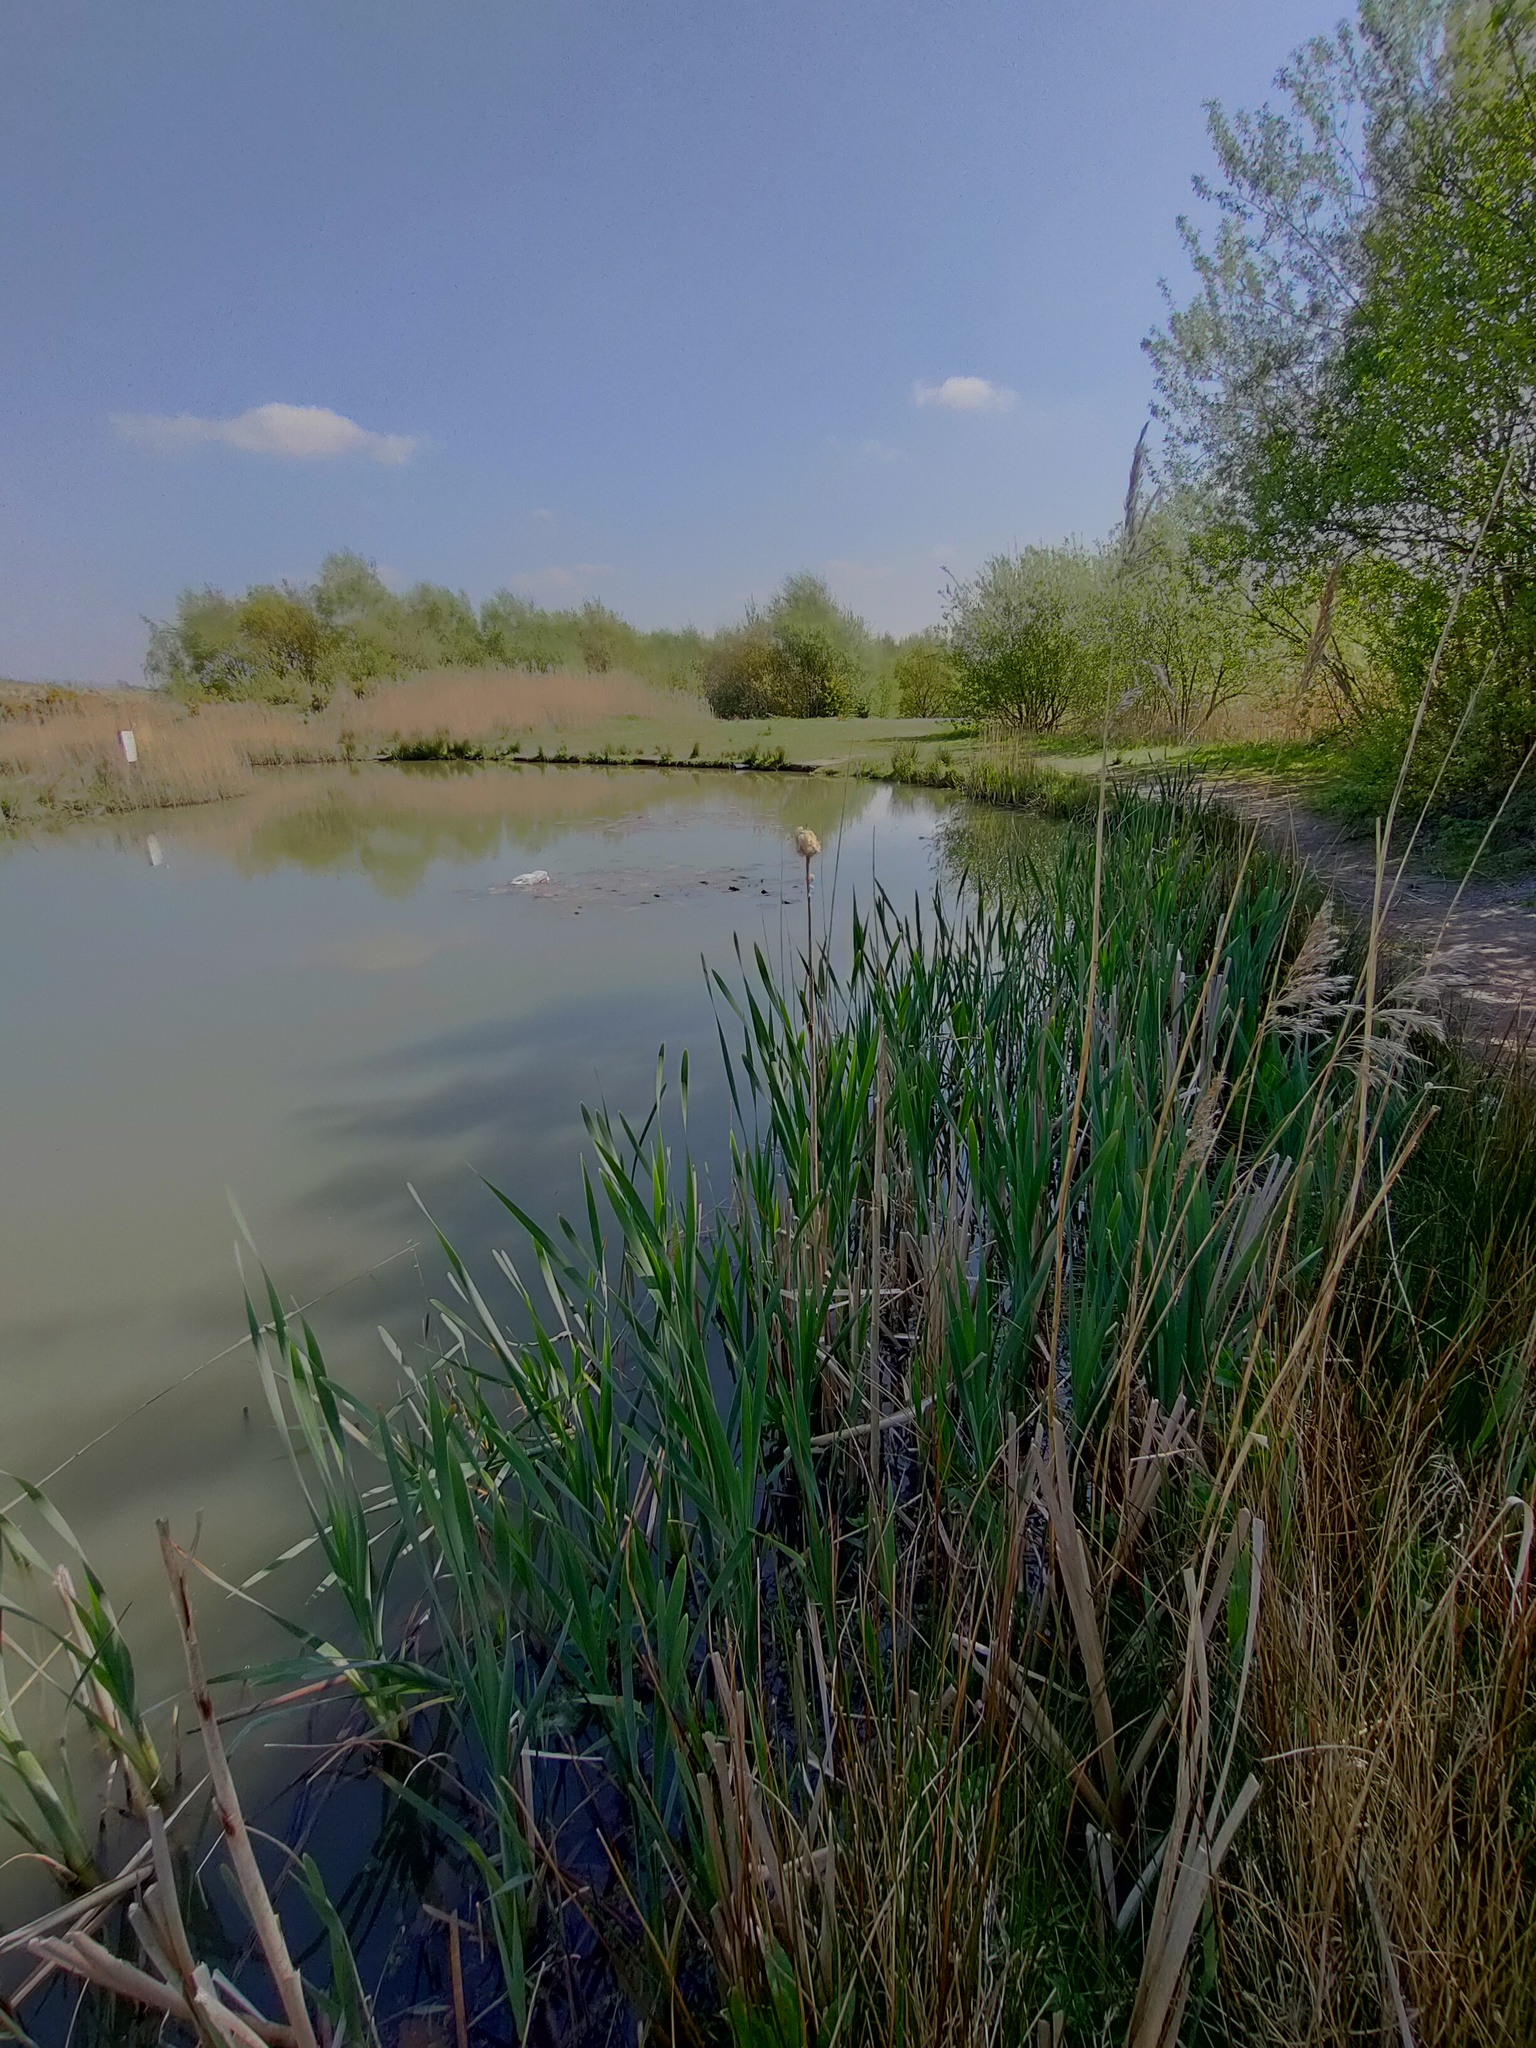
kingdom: Plantae
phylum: Tracheophyta
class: Liliopsida
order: Poales
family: Typhaceae
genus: Typha
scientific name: Typha latifolia
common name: Broadleaf cattail
